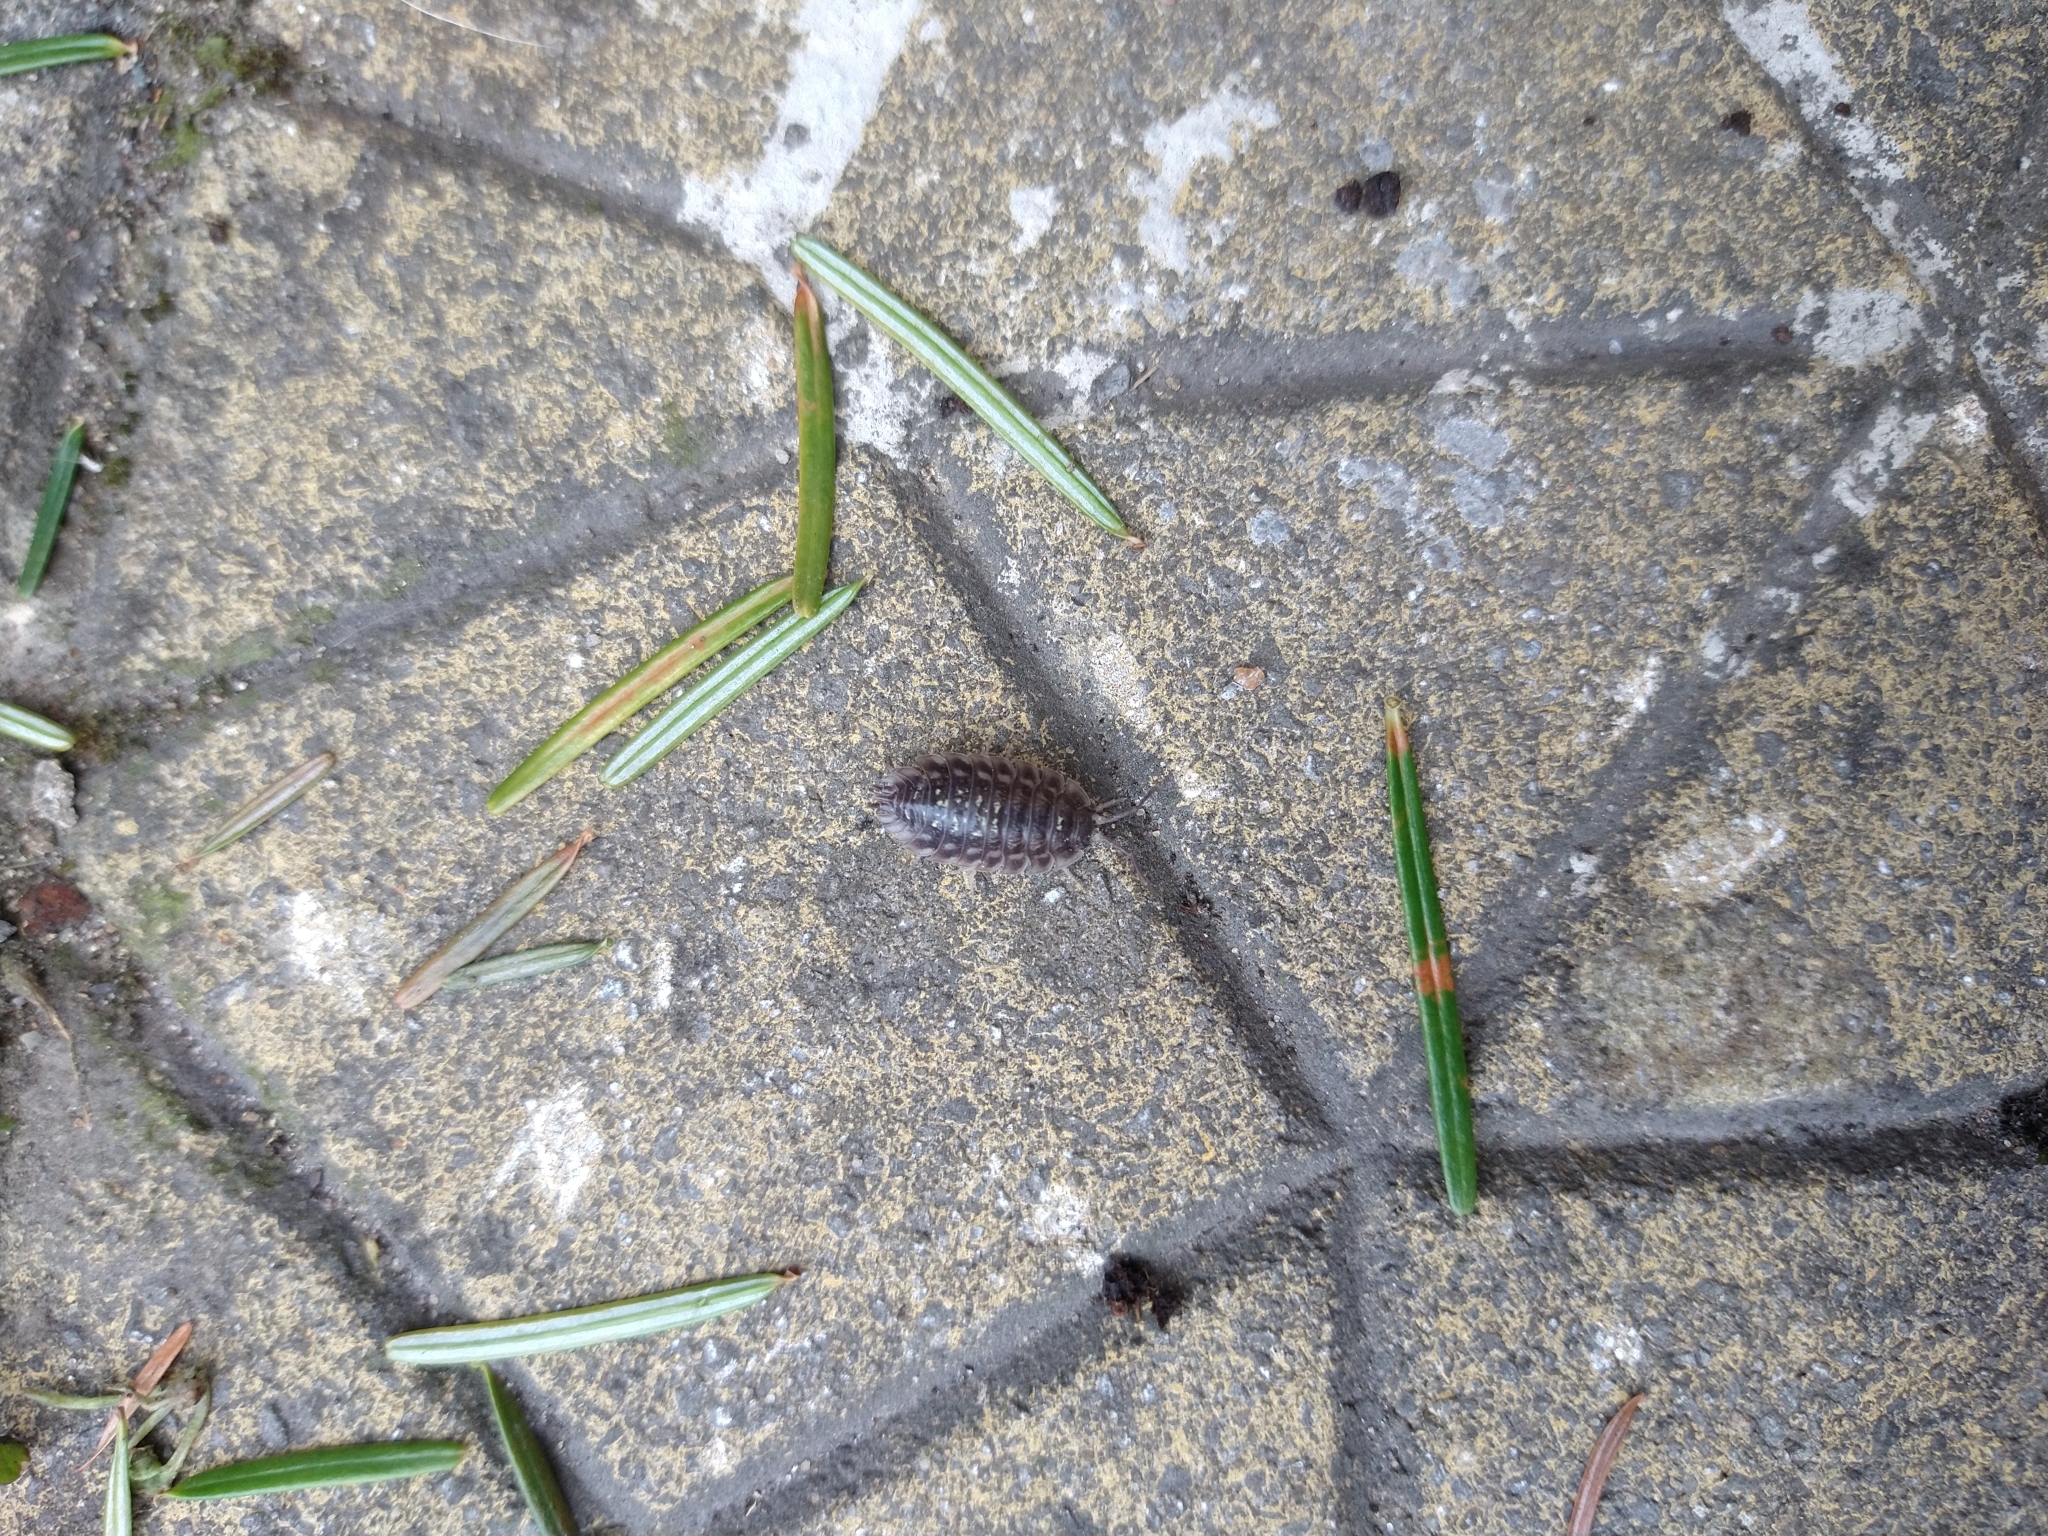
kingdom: Animalia
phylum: Arthropoda
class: Malacostraca
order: Isopoda
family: Oniscidae
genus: Oniscus
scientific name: Oniscus asellus
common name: Common shiny woodlouse
